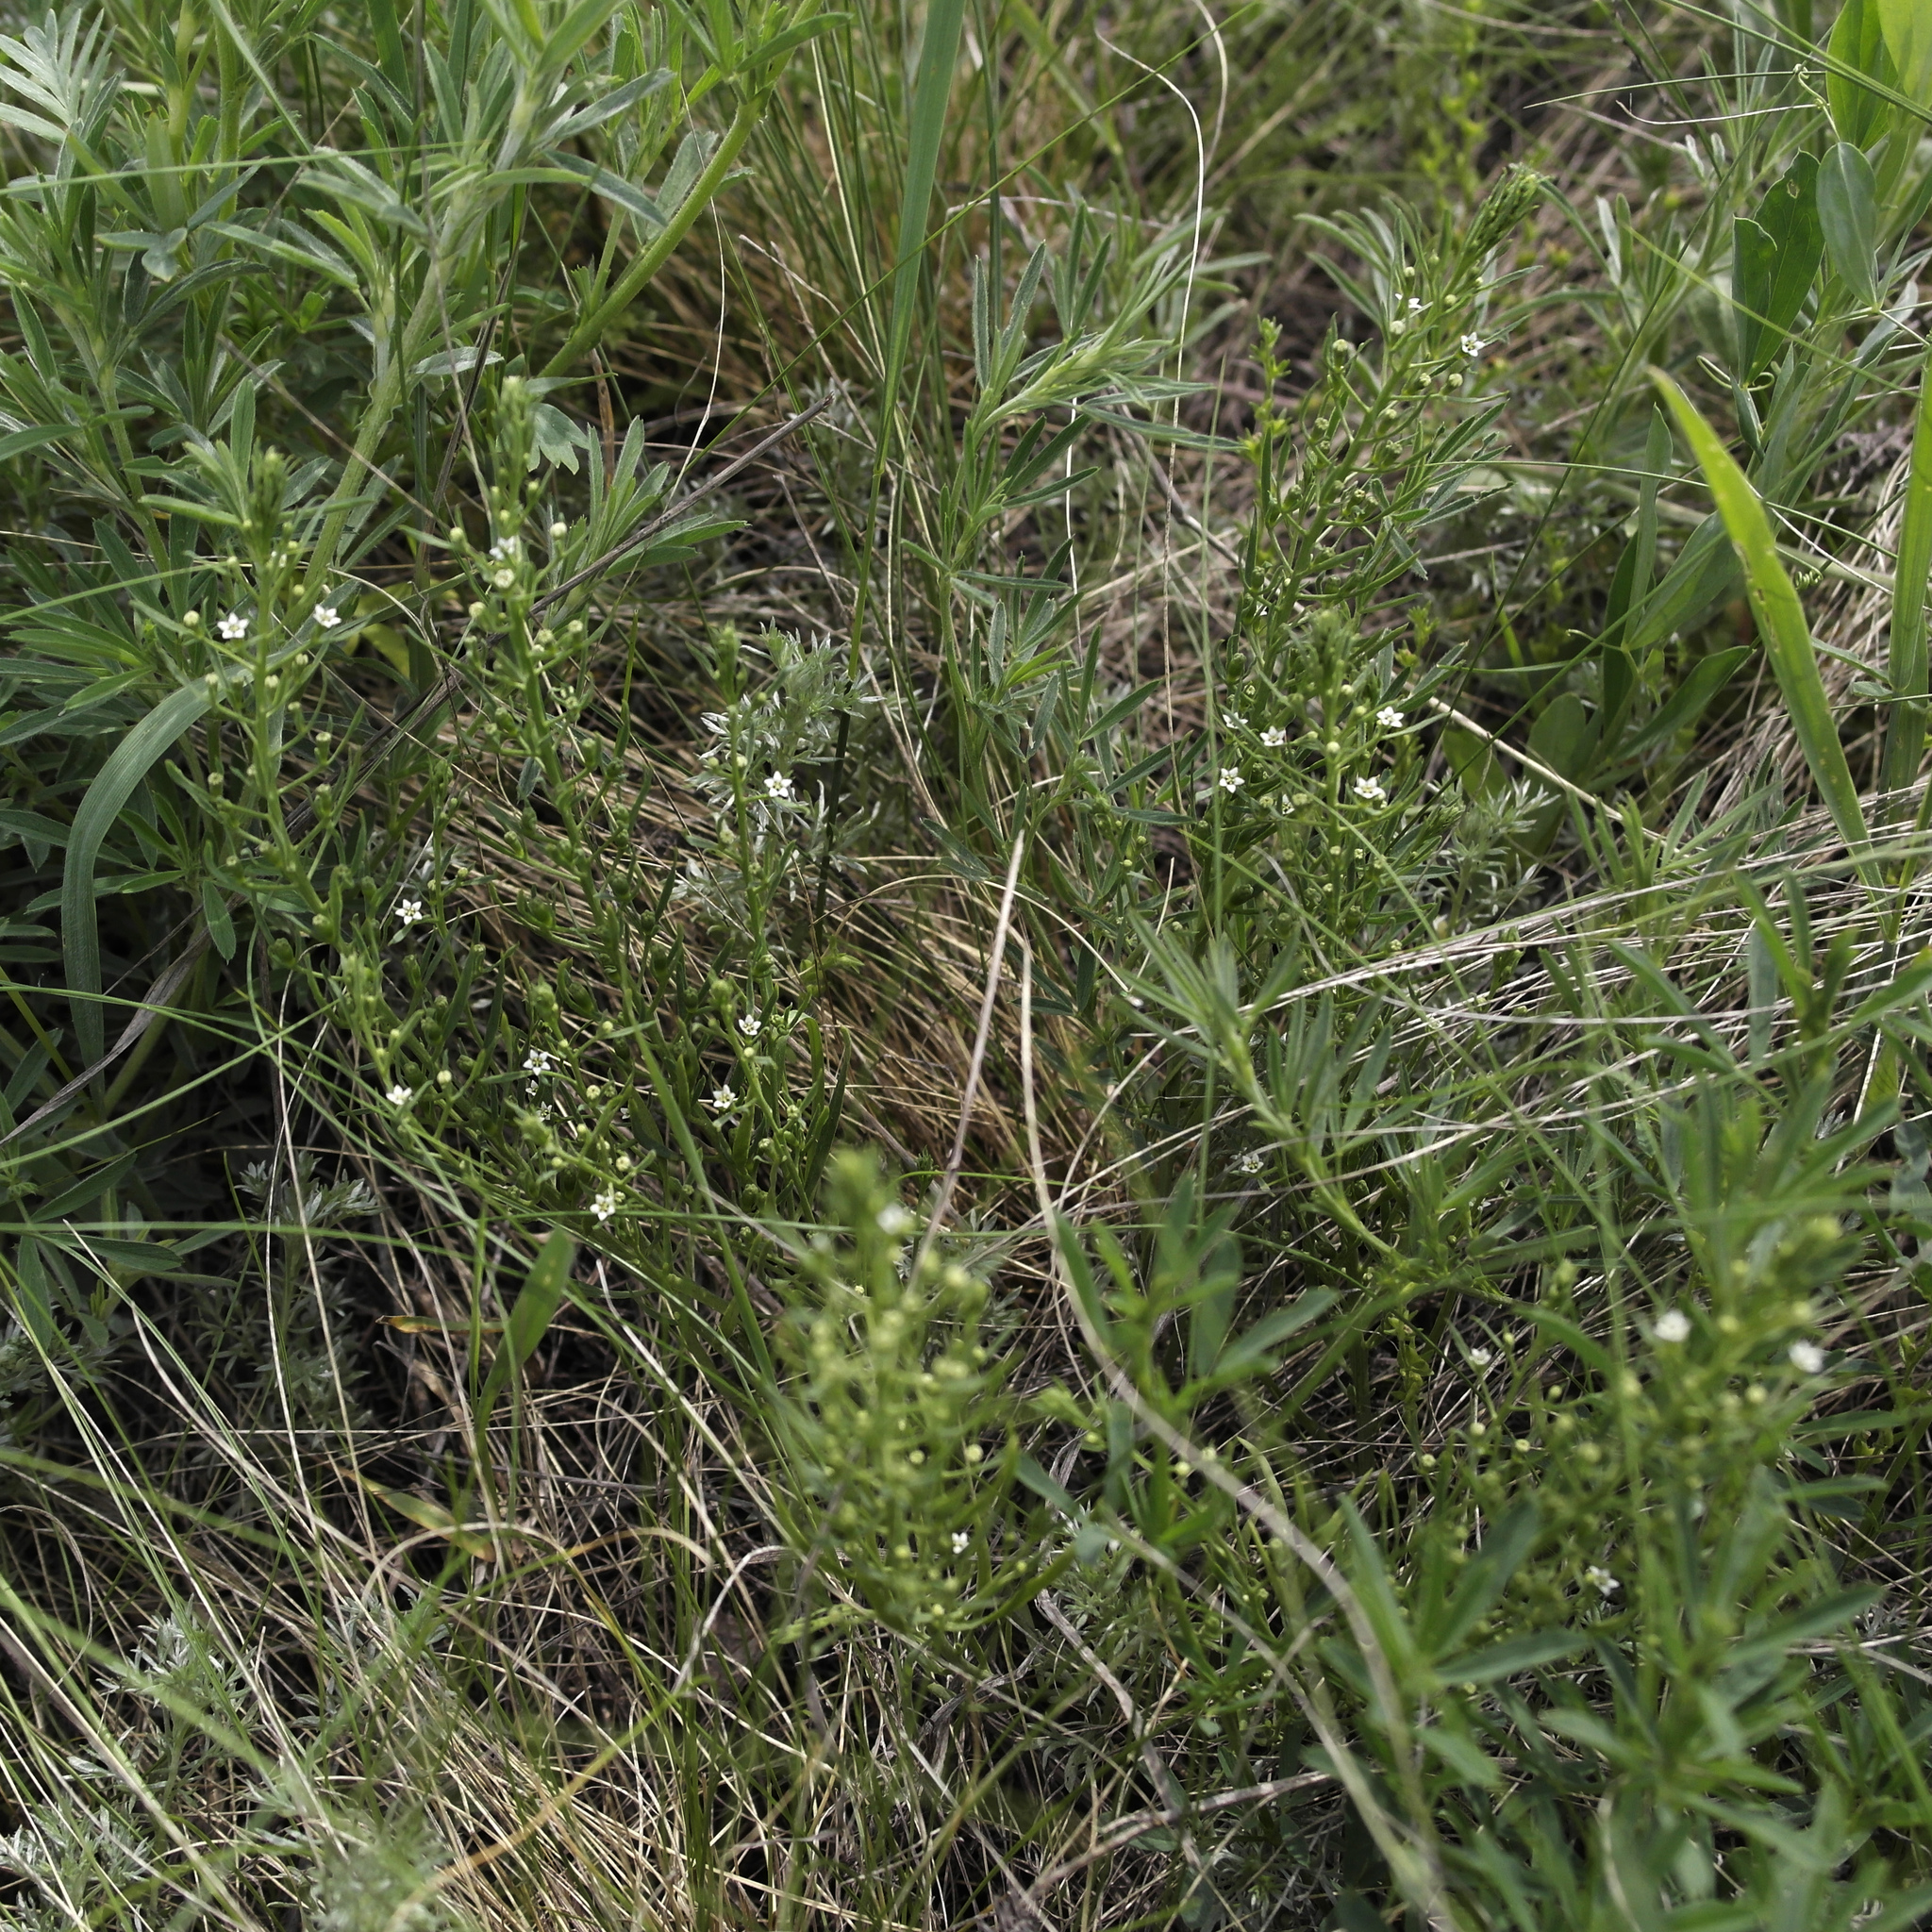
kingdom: Plantae
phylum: Tracheophyta
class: Magnoliopsida
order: Santalales
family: Thesiaceae
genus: Thesium
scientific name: Thesium ramosum
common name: Field thesium
